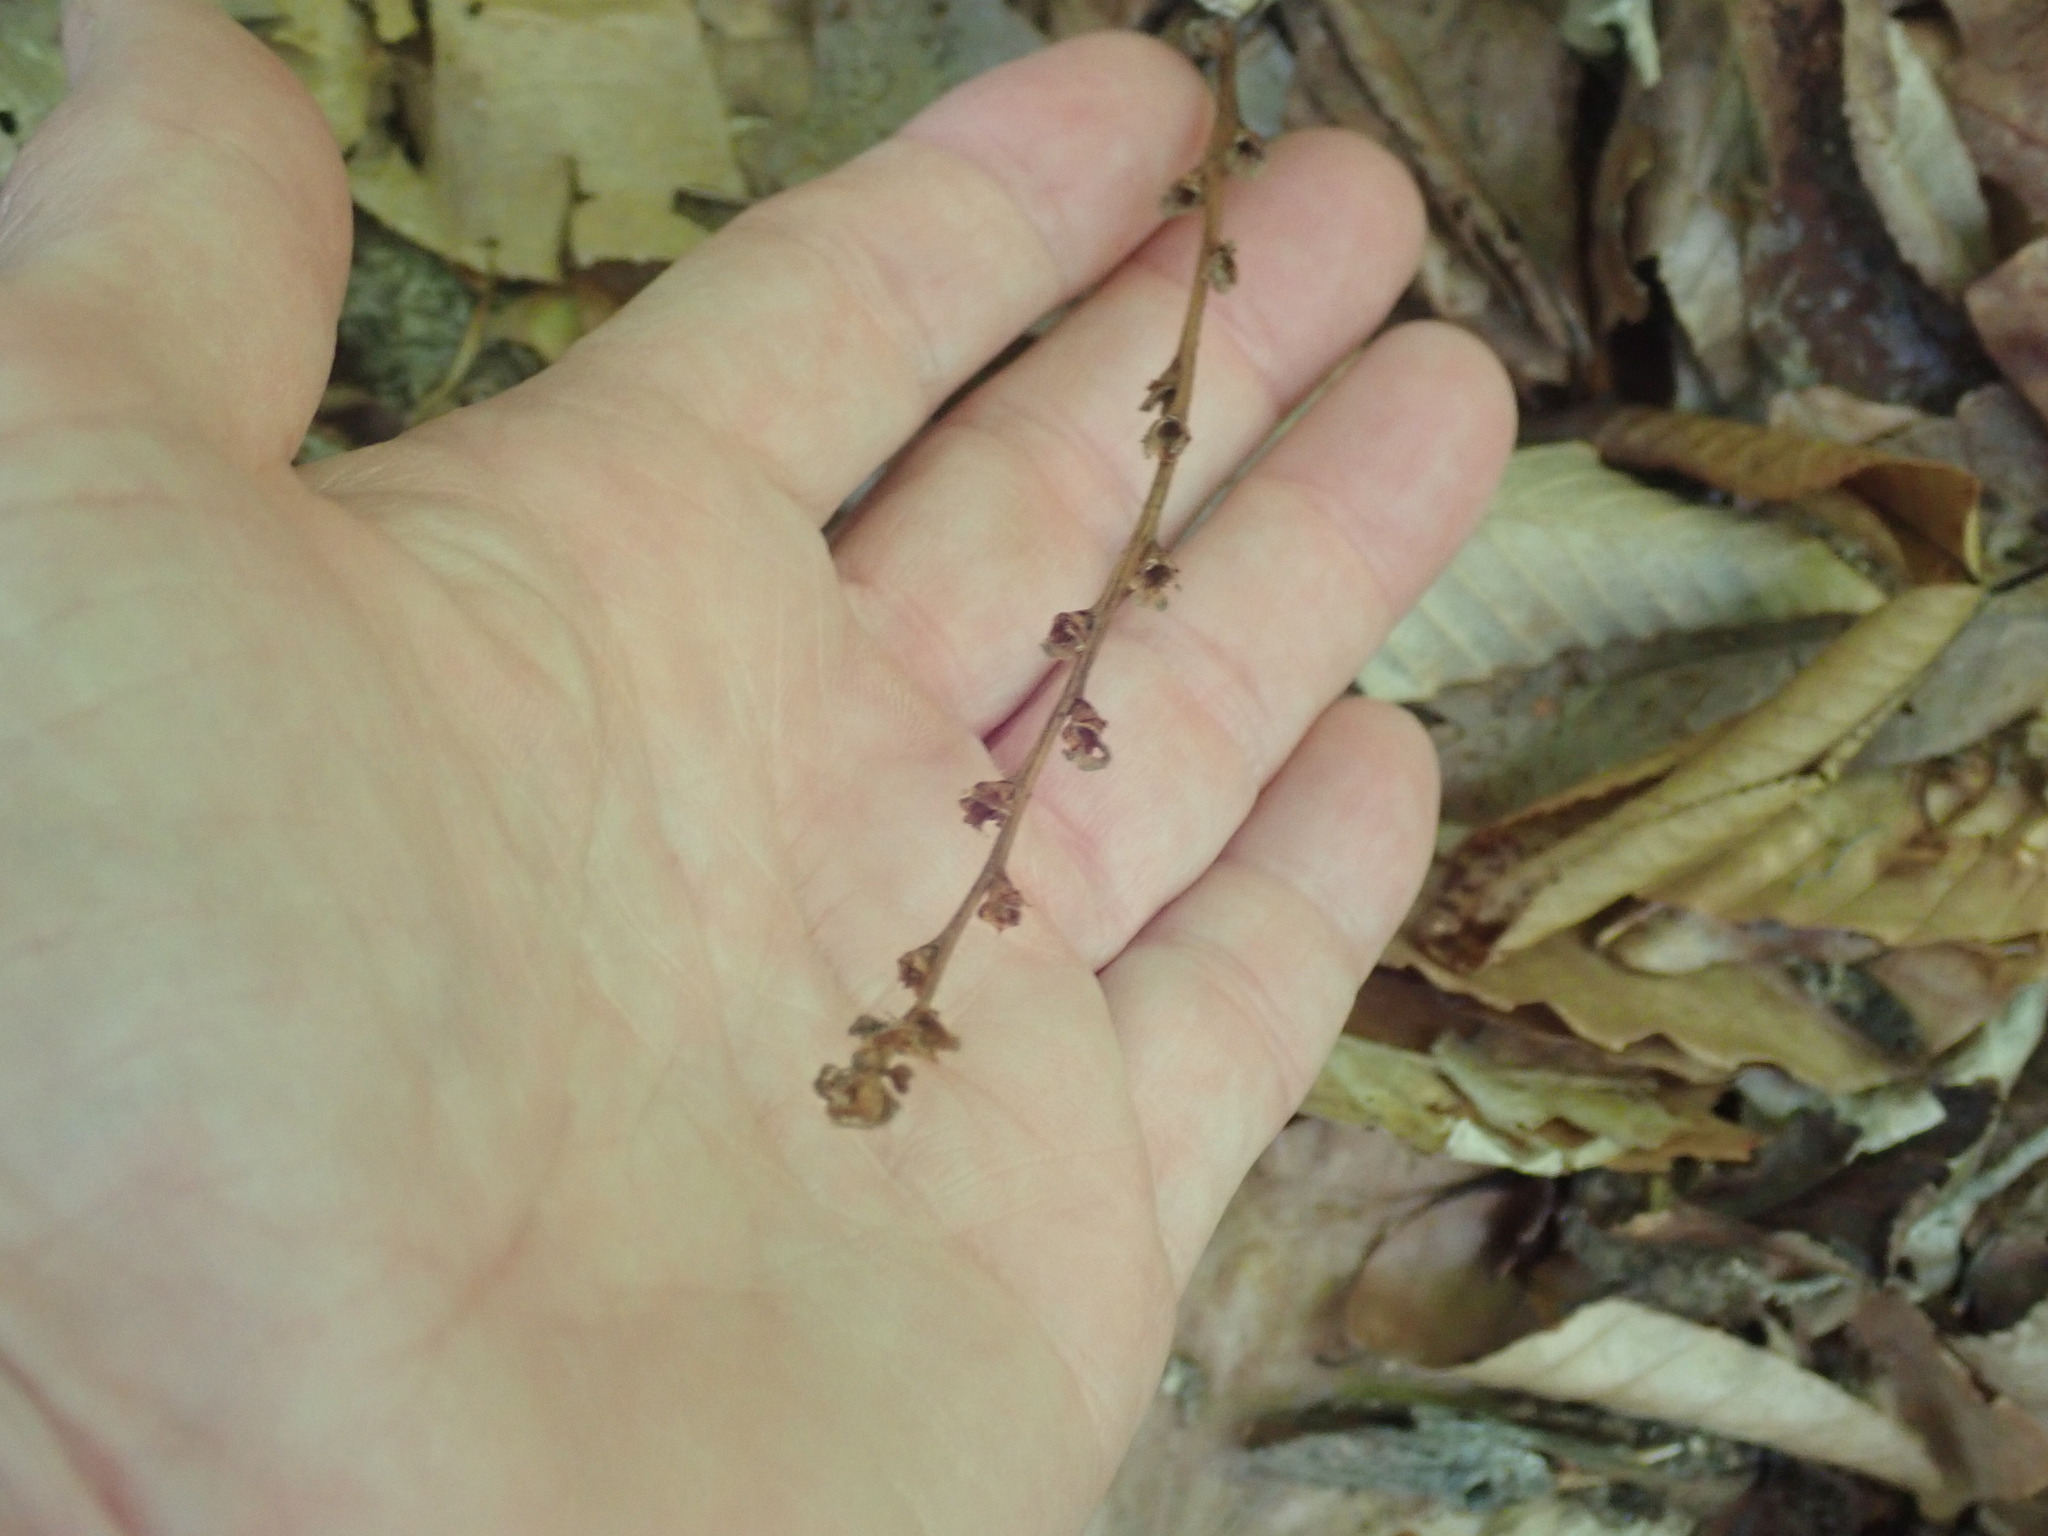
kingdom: Plantae
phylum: Tracheophyta
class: Magnoliopsida
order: Lamiales
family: Orobanchaceae
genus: Epifagus
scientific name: Epifagus virginiana
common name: Beechdrops
